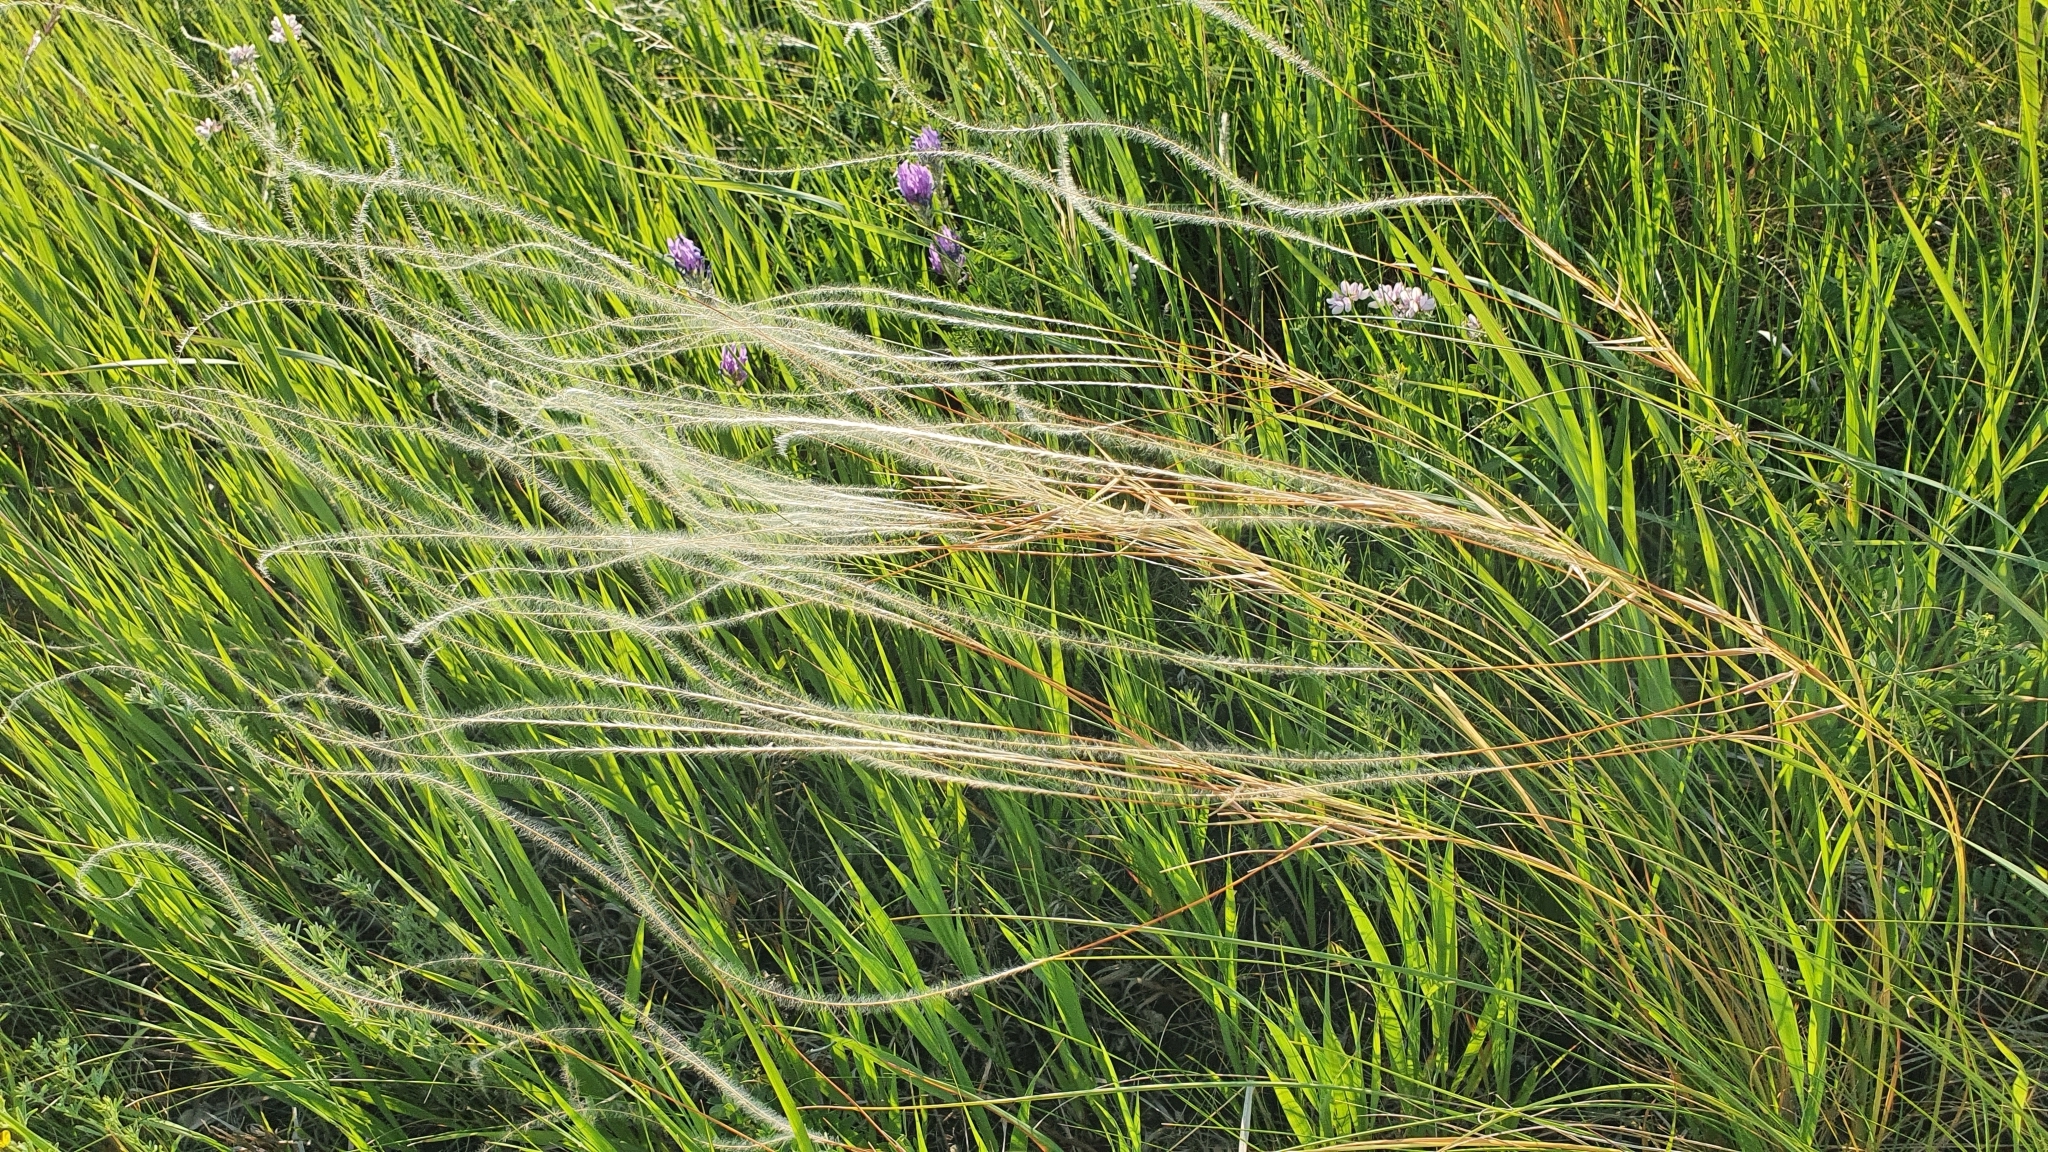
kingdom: Plantae
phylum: Tracheophyta
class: Liliopsida
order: Poales
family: Poaceae
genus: Stipa
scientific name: Stipa pennata
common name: European feather grass
